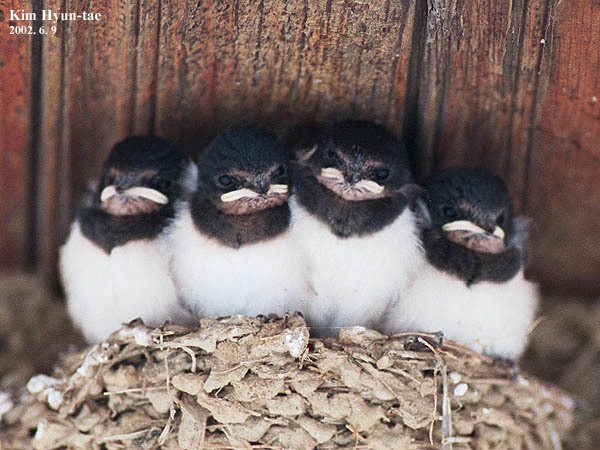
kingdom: Animalia
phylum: Chordata
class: Aves
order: Passeriformes
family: Hirundinidae
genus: Hirundo
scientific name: Hirundo rustica
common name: Barn swallow
